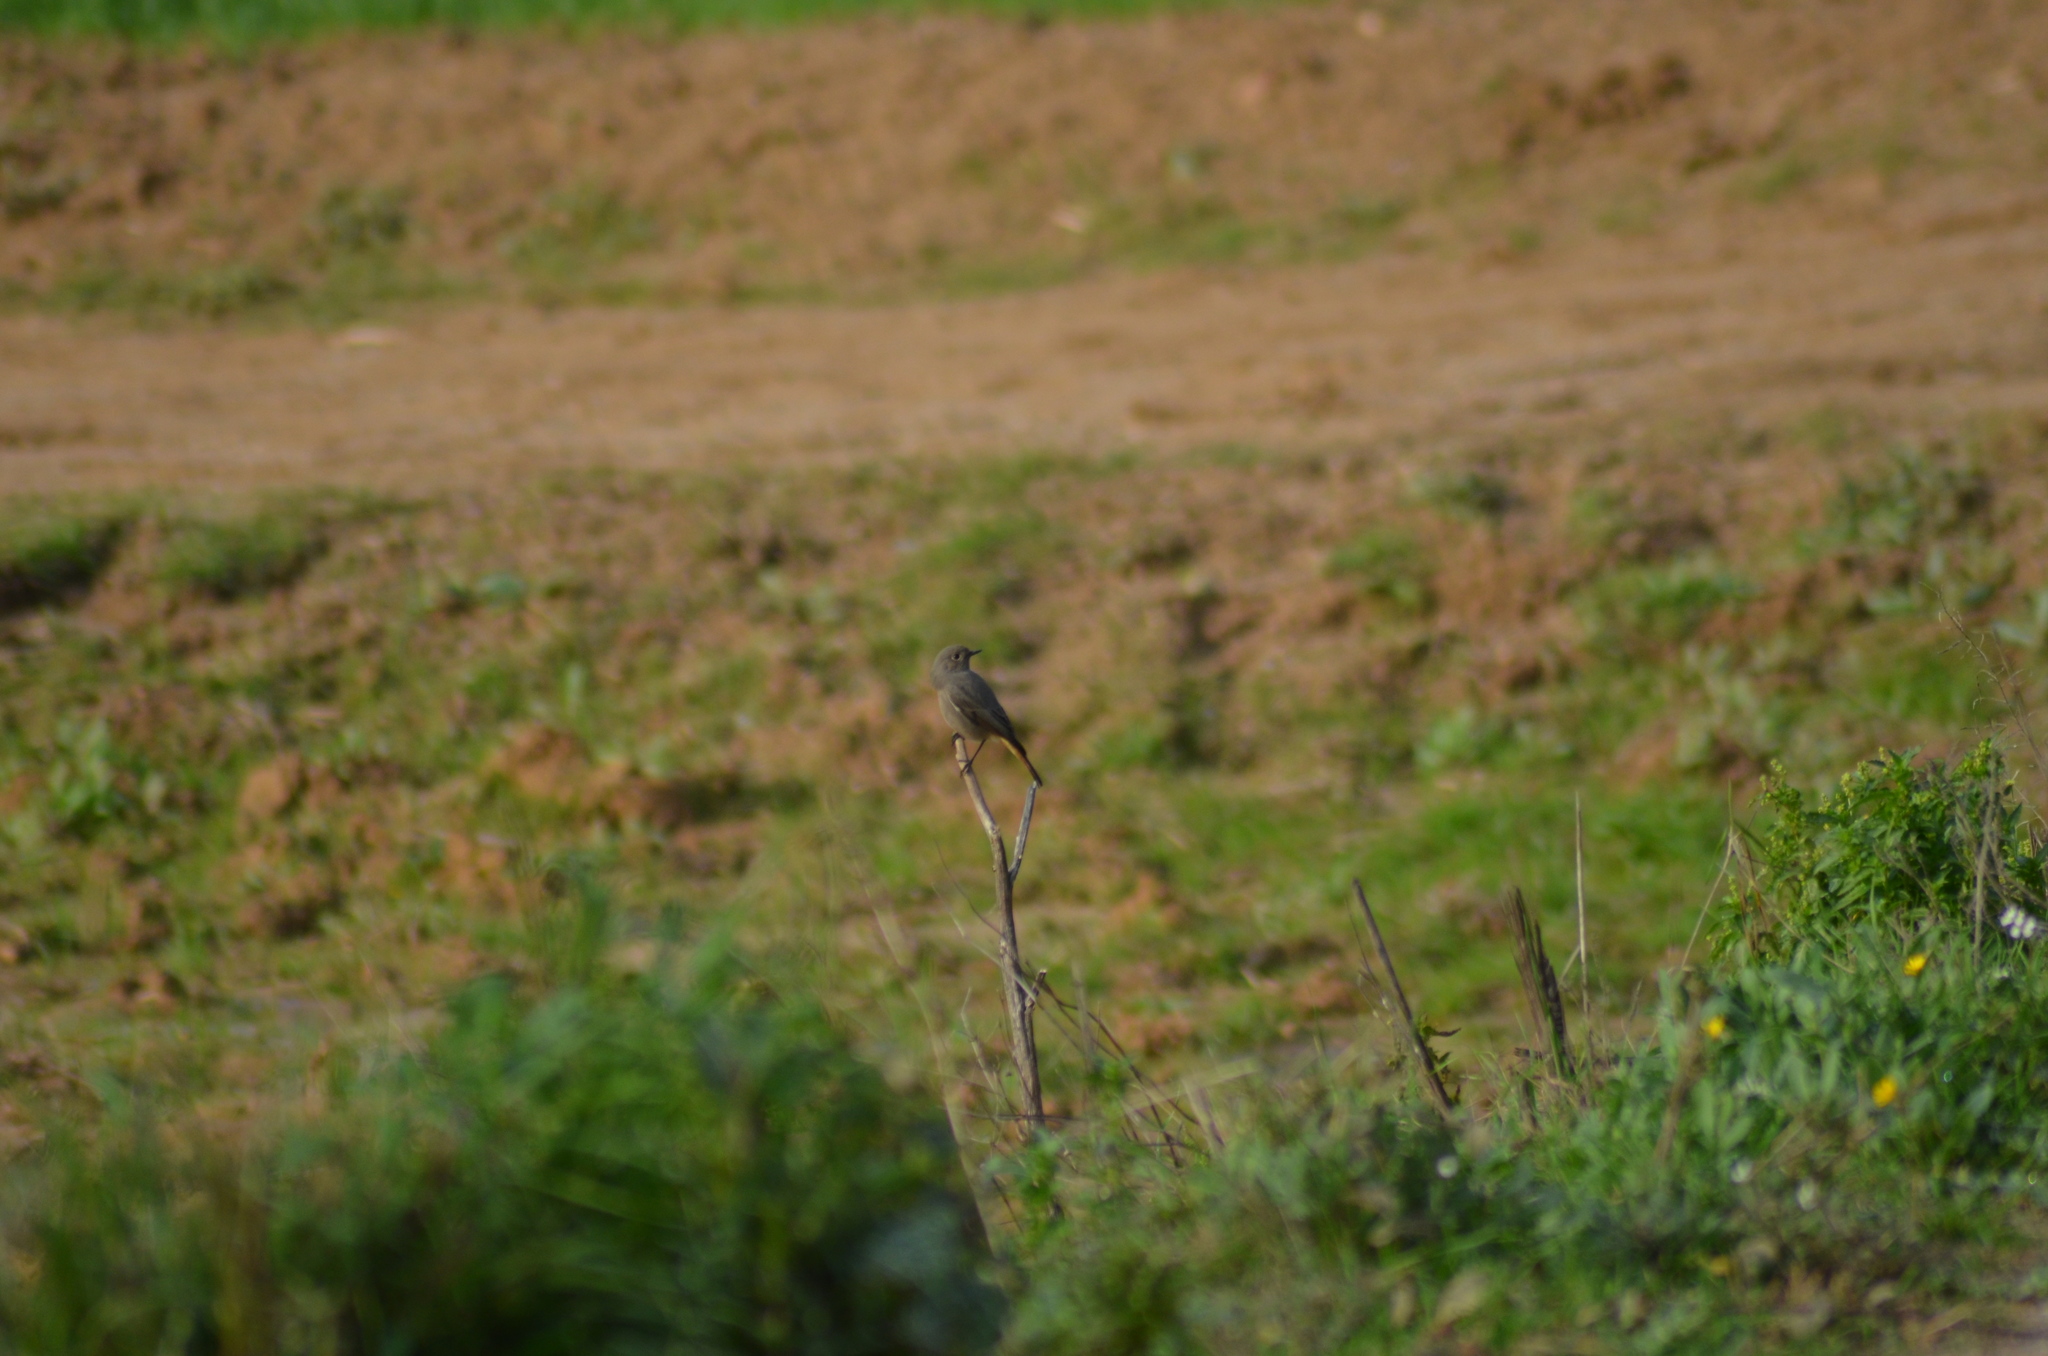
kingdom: Animalia
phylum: Chordata
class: Aves
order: Passeriformes
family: Muscicapidae
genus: Phoenicurus
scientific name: Phoenicurus ochruros
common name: Black redstart
